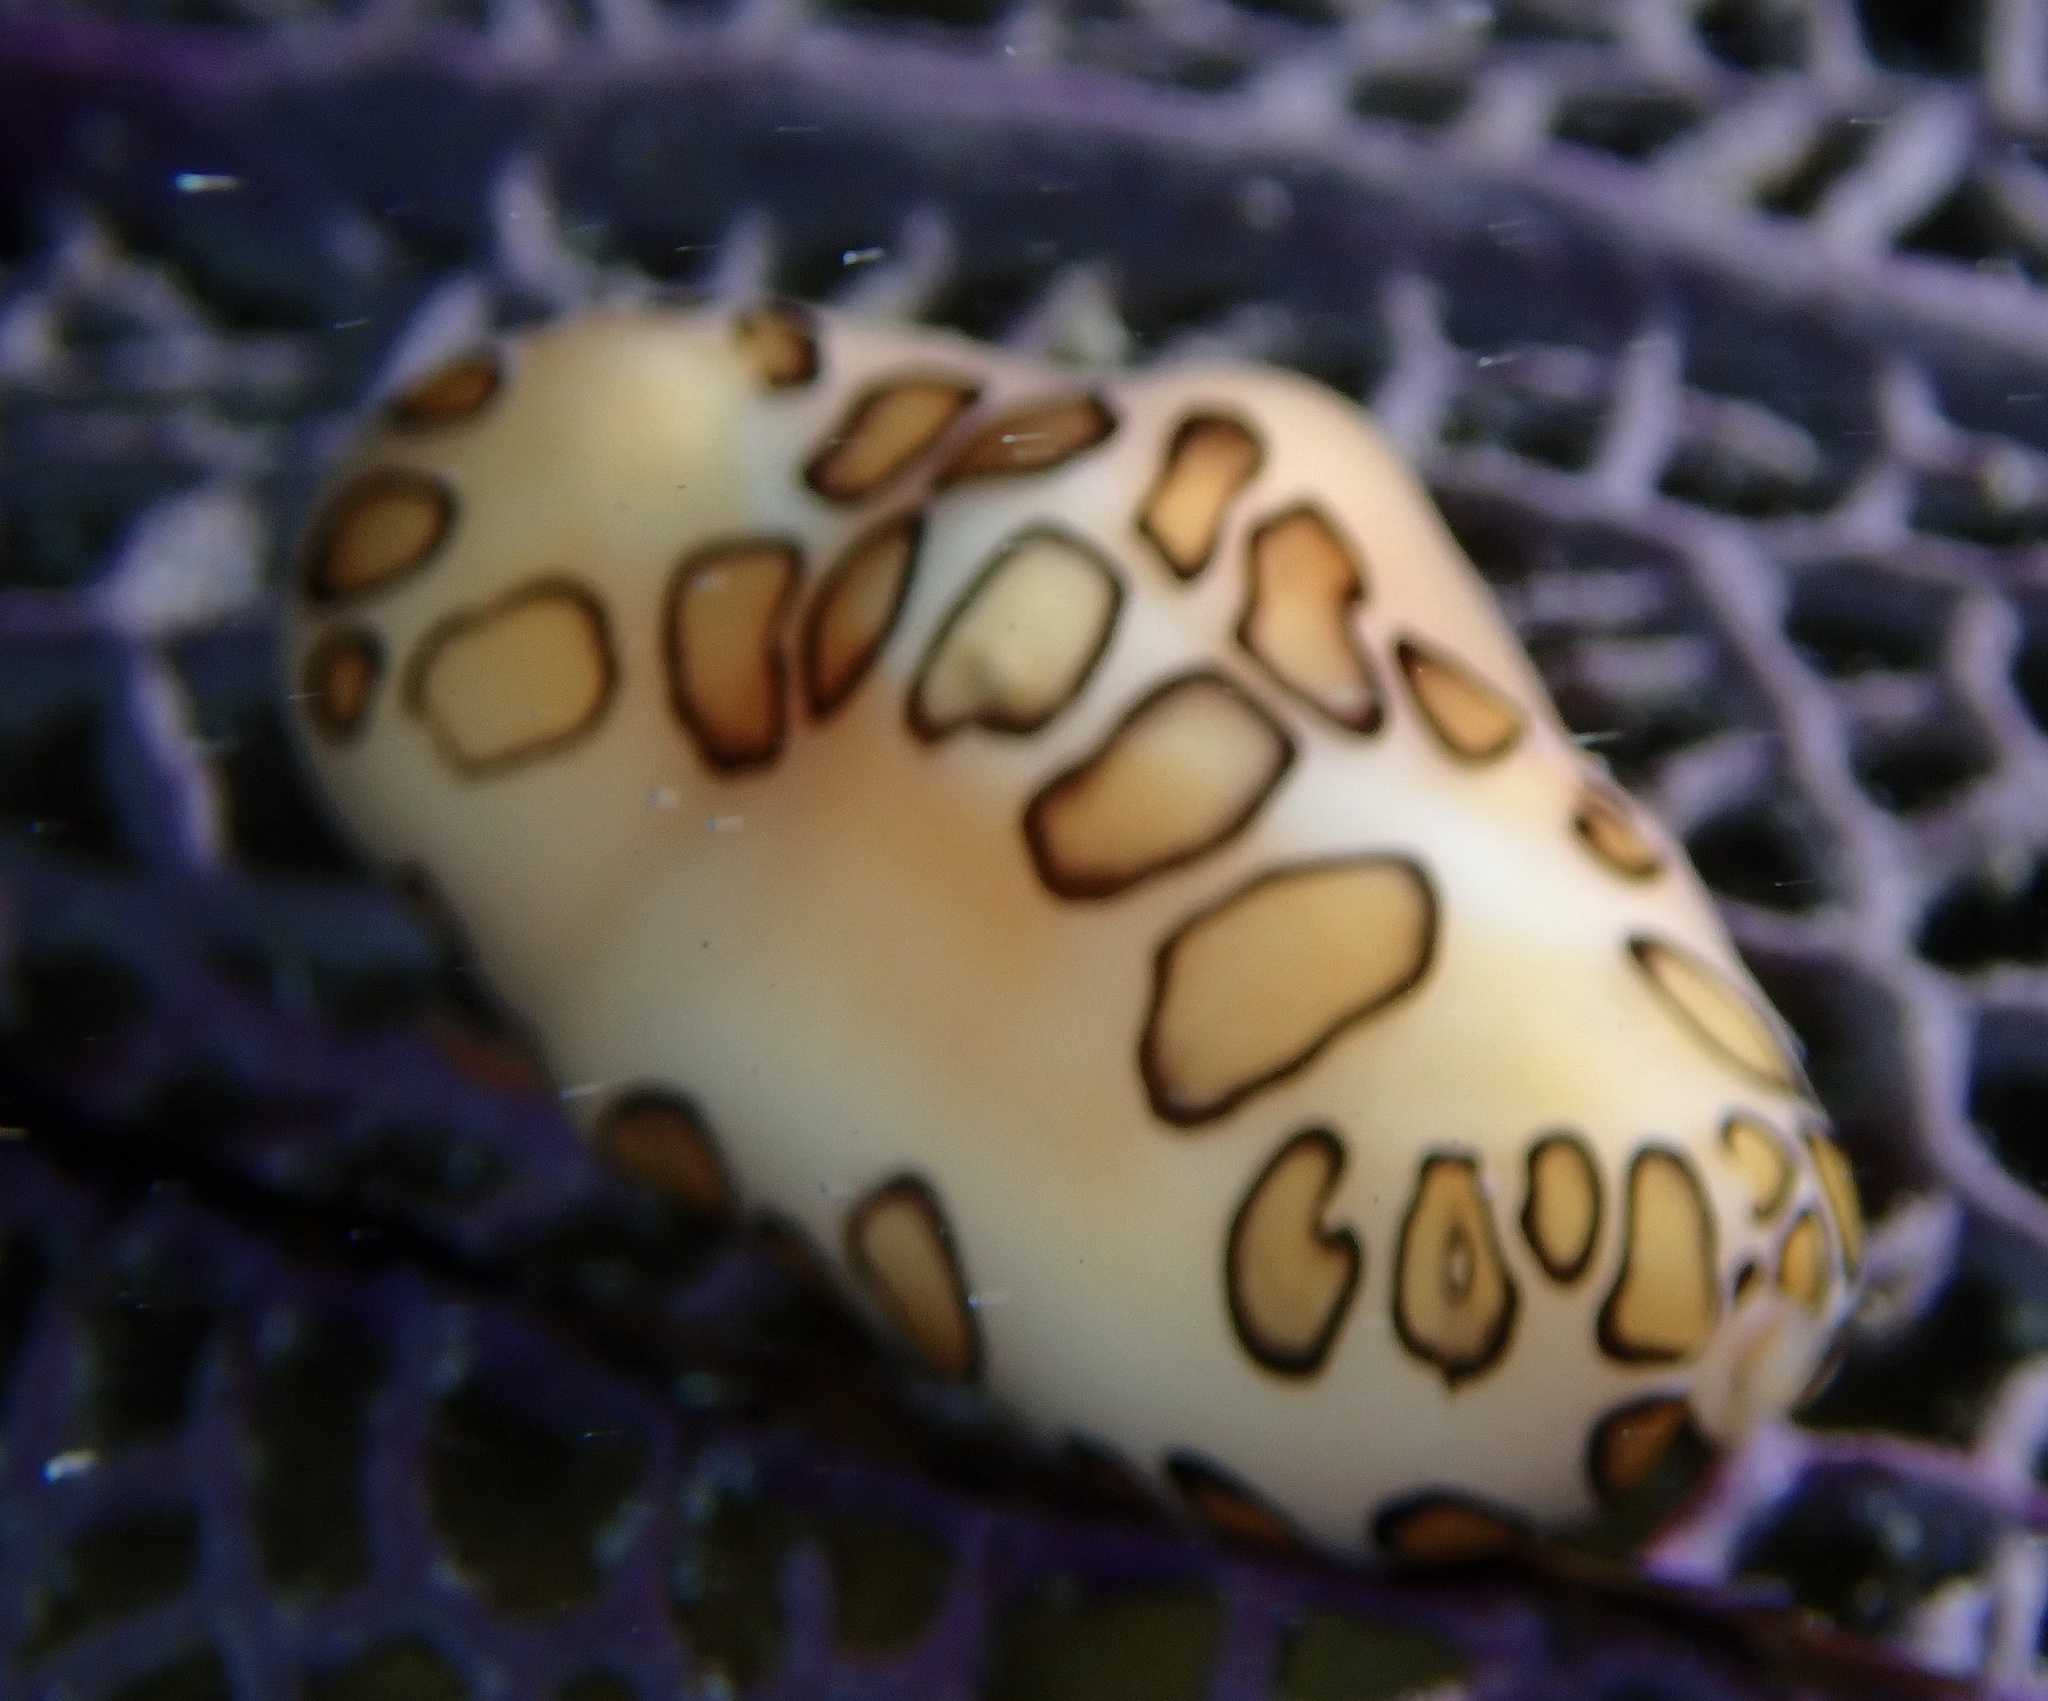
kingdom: Animalia
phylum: Mollusca
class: Gastropoda
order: Littorinimorpha
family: Ovulidae
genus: Cyphoma
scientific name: Cyphoma gibbosum
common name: Flamingo tongue
